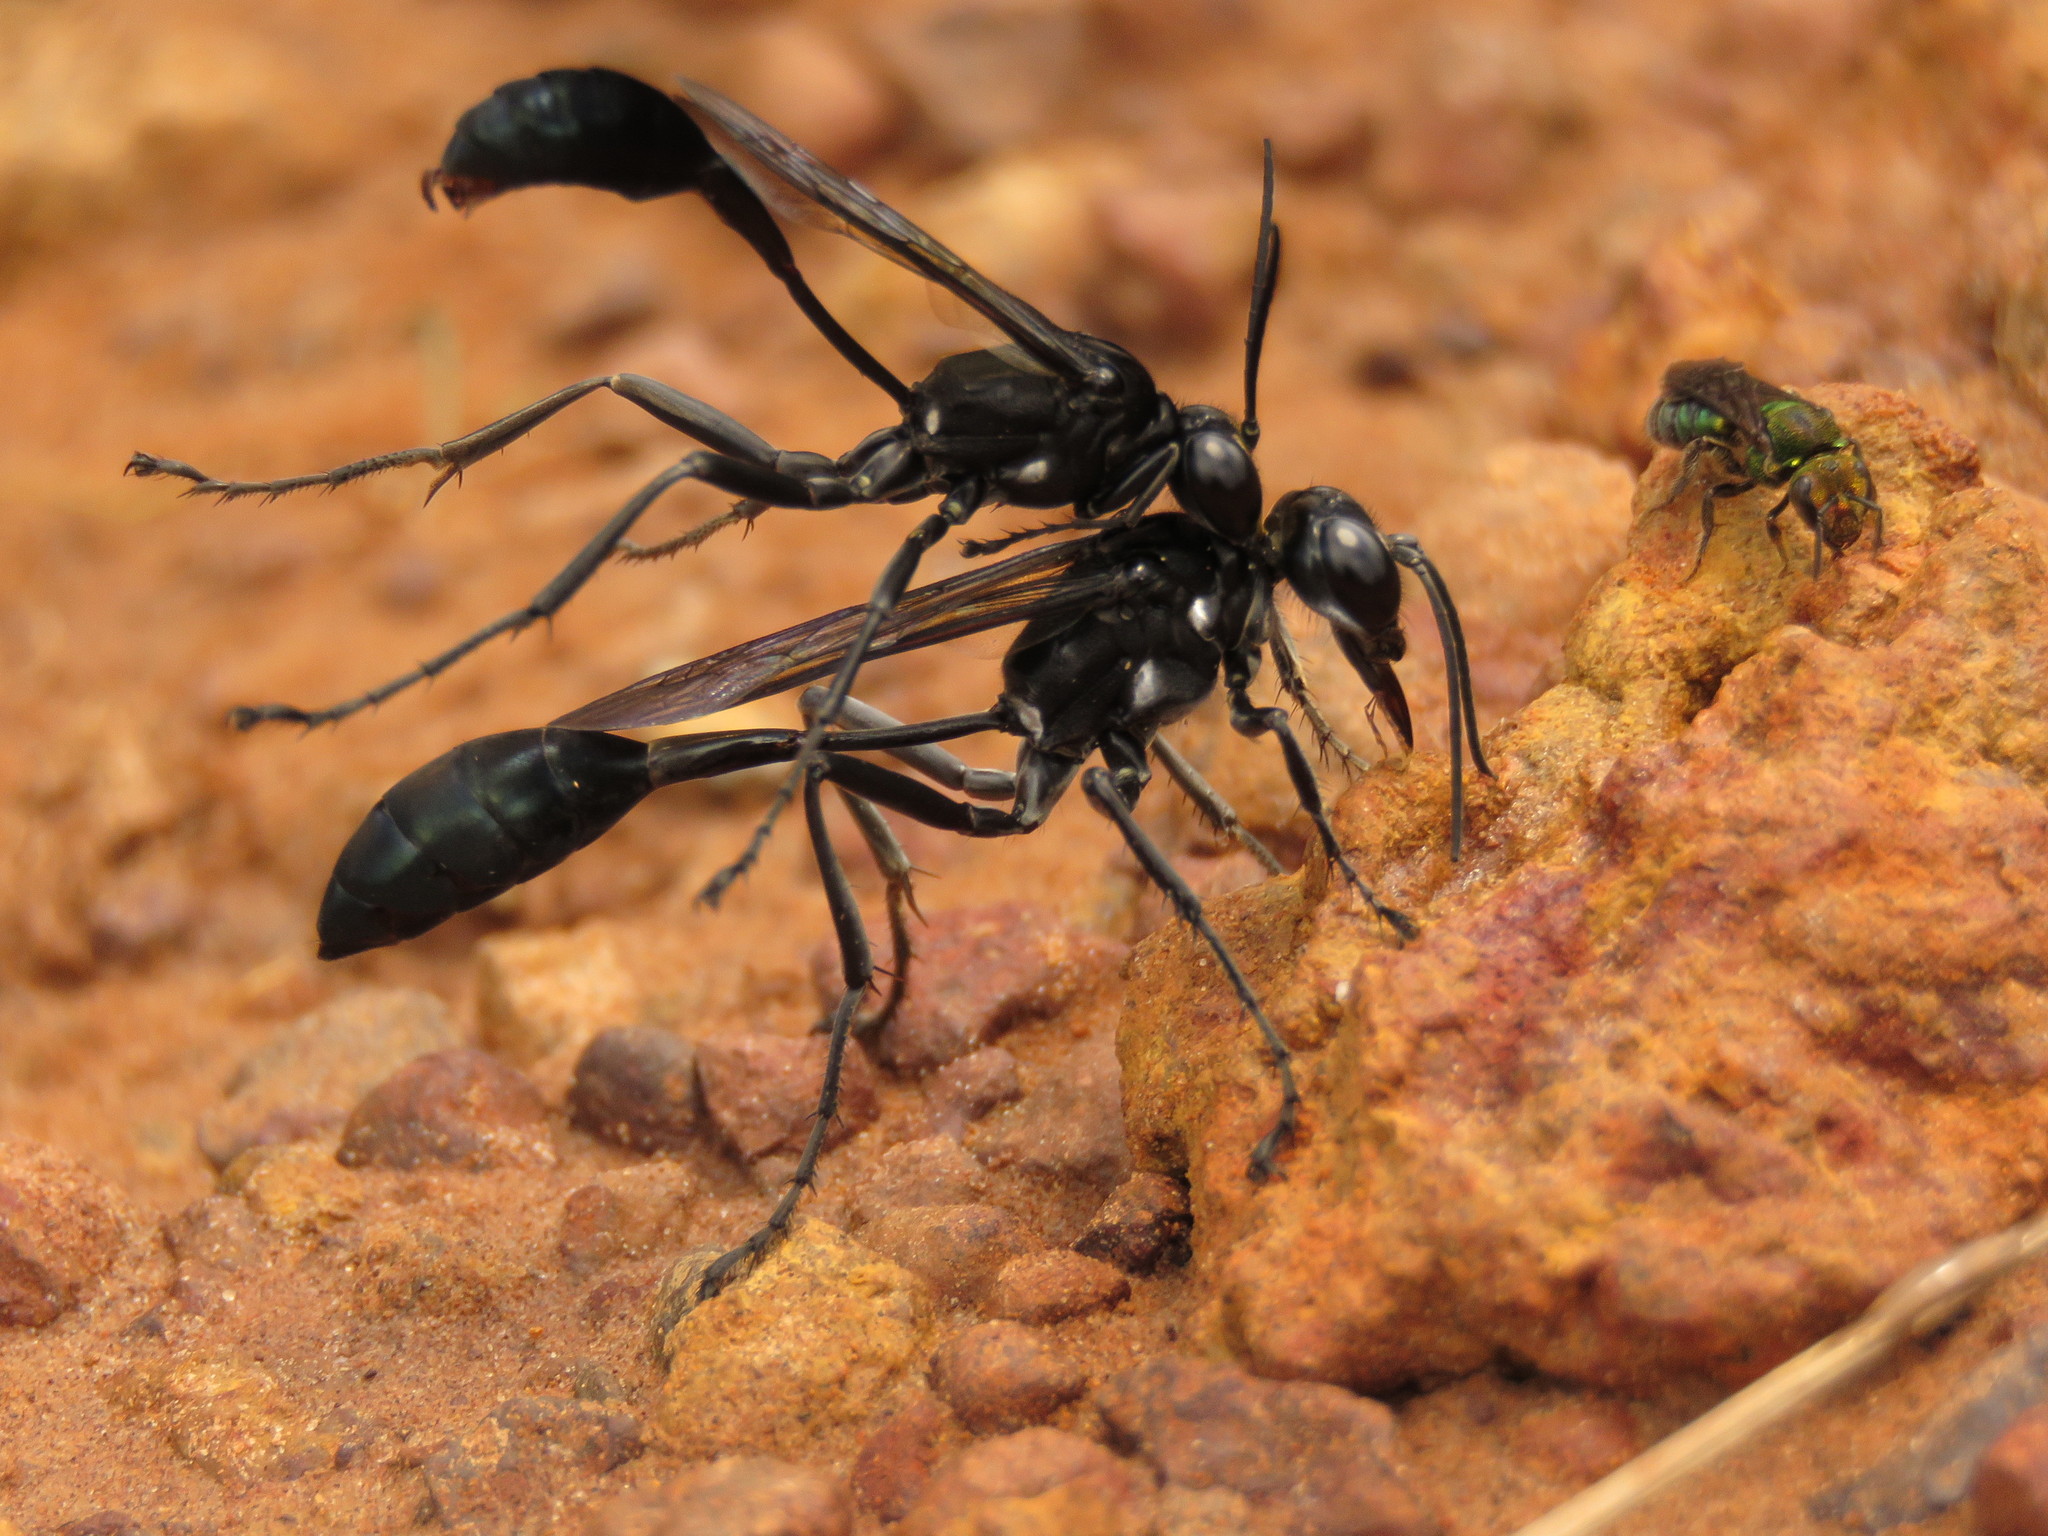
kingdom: Animalia
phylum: Arthropoda
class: Insecta
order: Hymenoptera
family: Sphecidae
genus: Eremnophila
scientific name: Eremnophila melanaria
